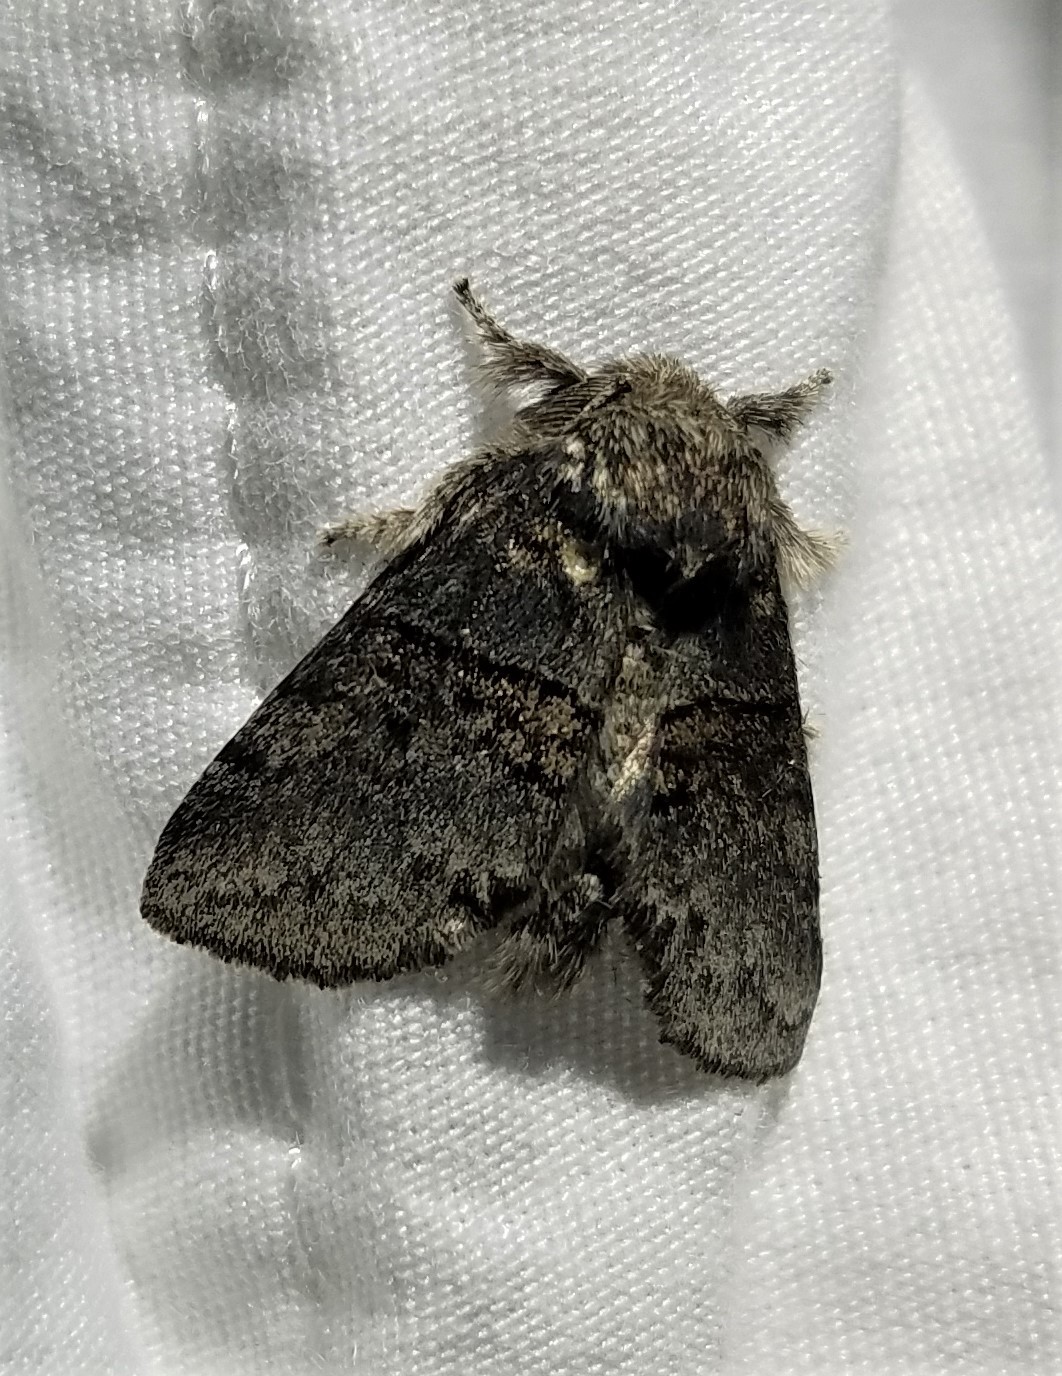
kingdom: Animalia
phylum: Arthropoda
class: Insecta
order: Lepidoptera
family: Notodontidae
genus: Gluphisia
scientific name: Gluphisia septentrionis
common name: Common gluphisia
